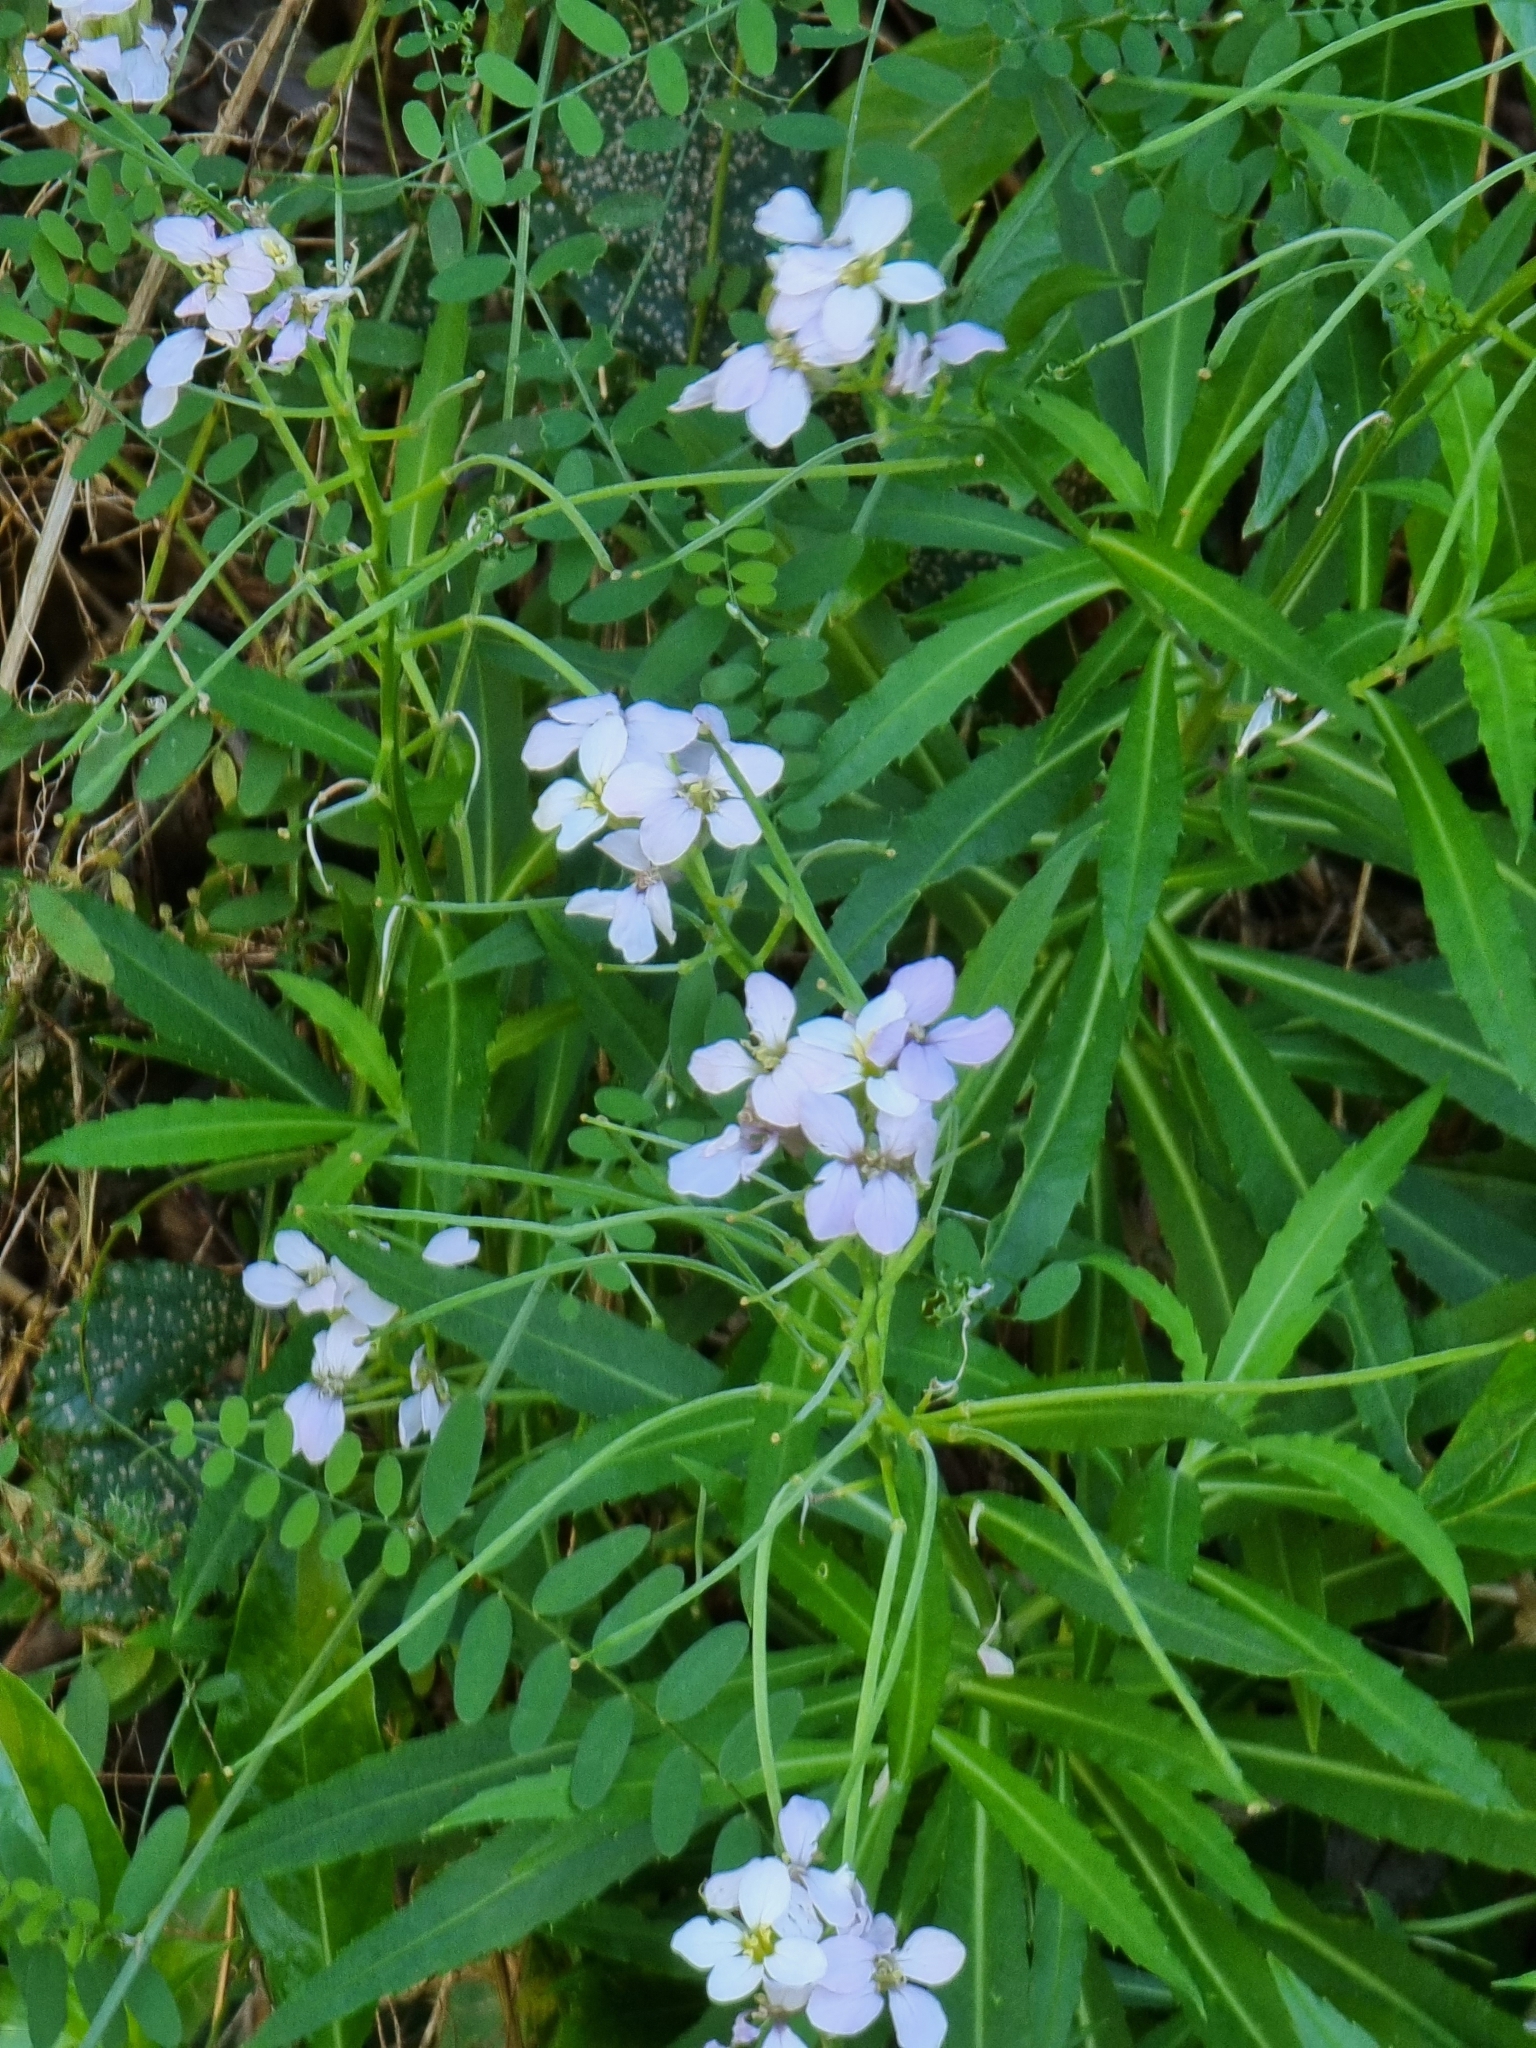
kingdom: Plantae
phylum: Tracheophyta
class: Magnoliopsida
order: Brassicales
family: Brassicaceae
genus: Erysimum
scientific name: Erysimum bicolor
